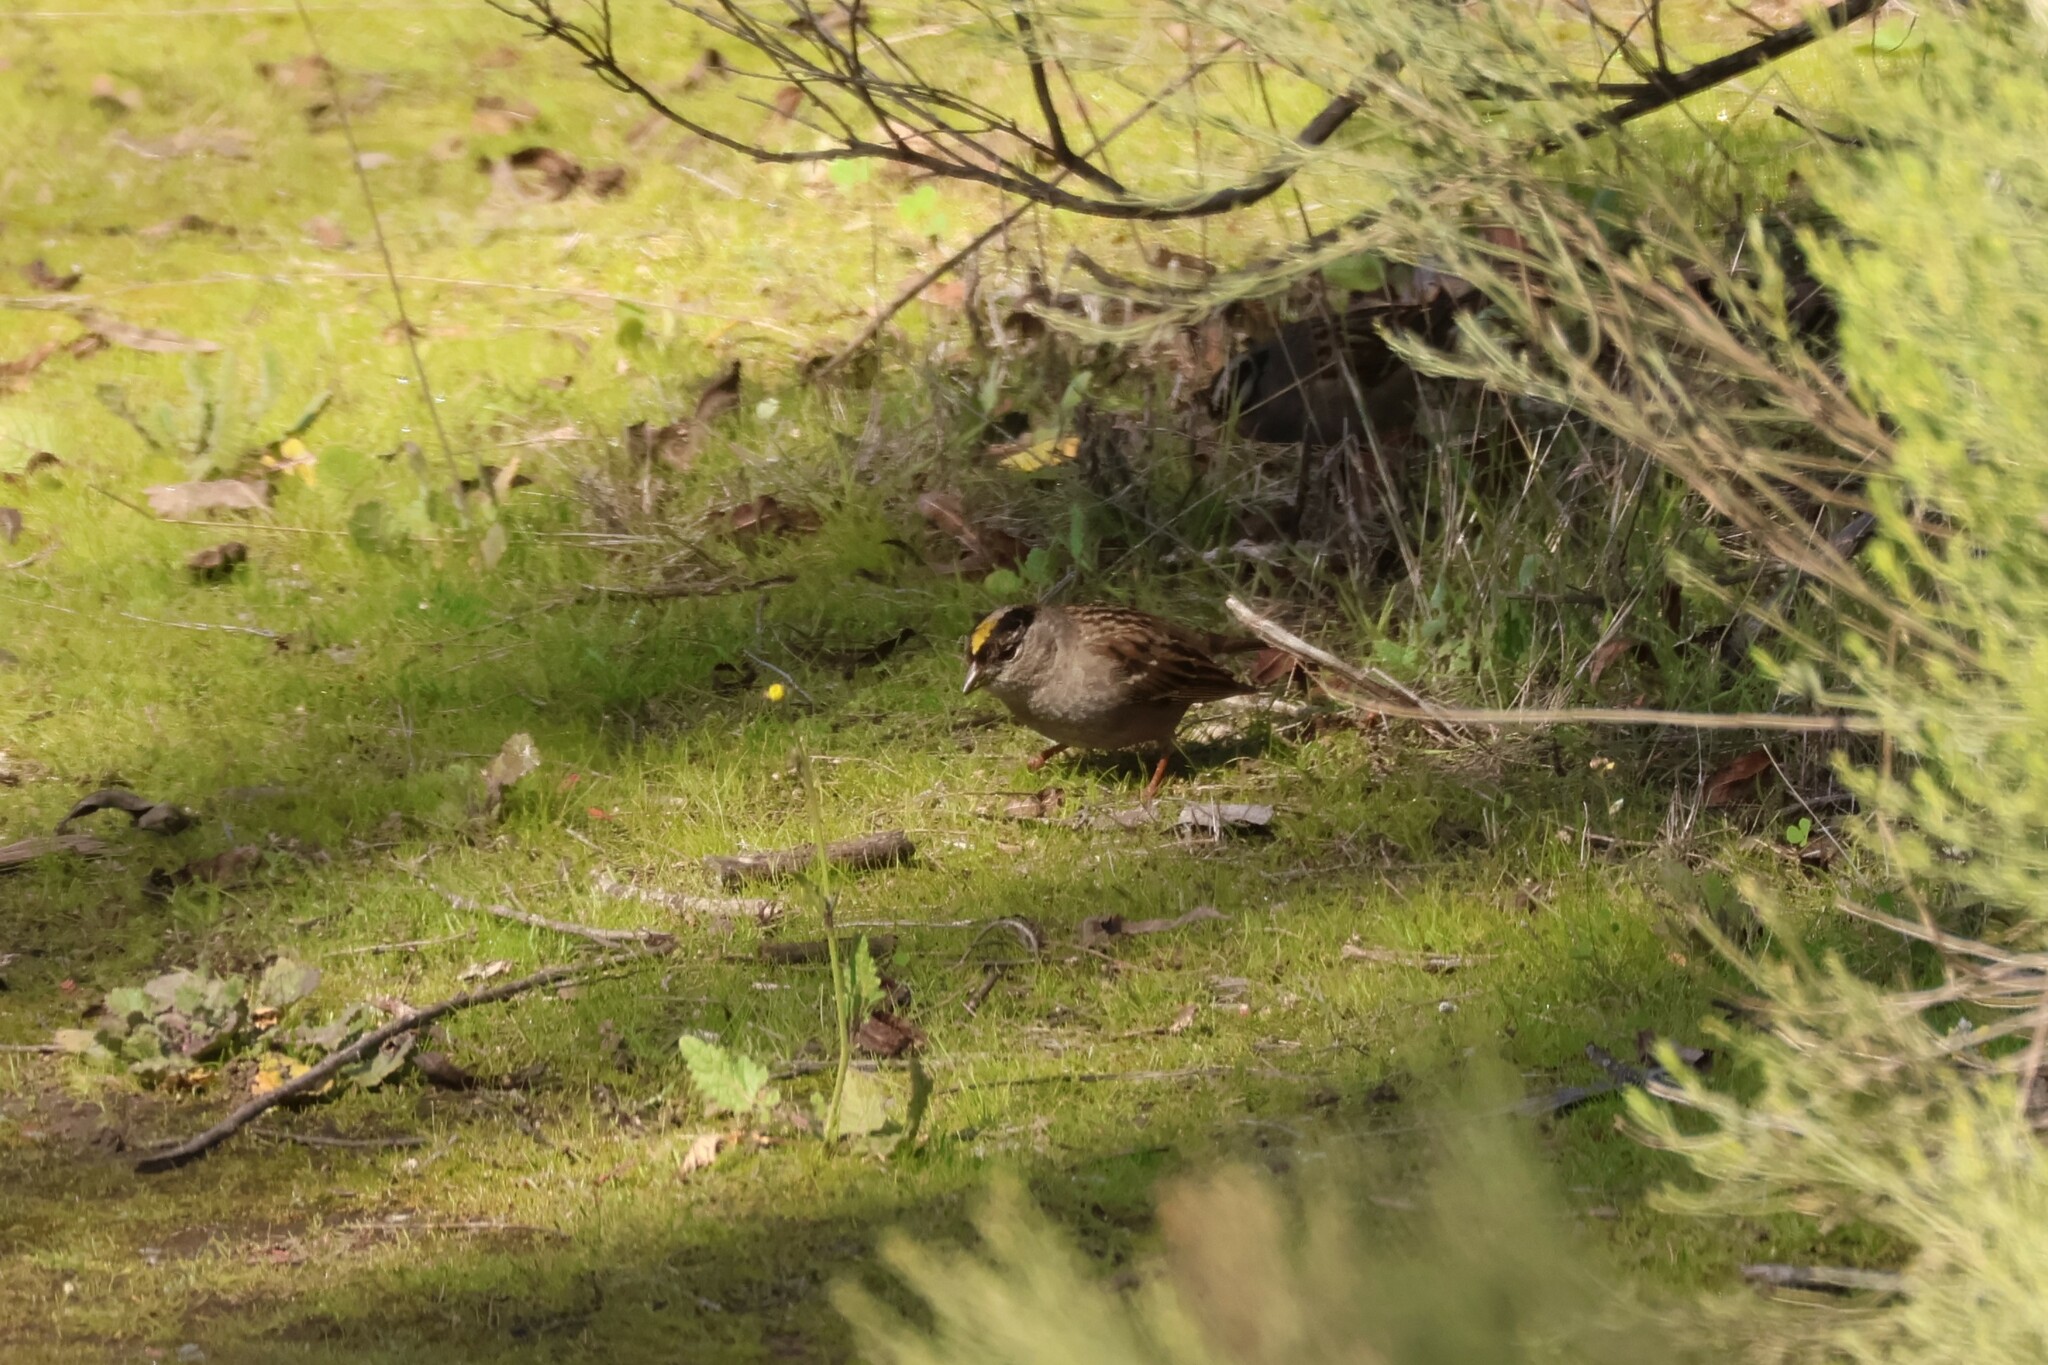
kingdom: Animalia
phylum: Chordata
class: Aves
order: Passeriformes
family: Passerellidae
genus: Zonotrichia
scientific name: Zonotrichia atricapilla
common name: Golden-crowned sparrow
